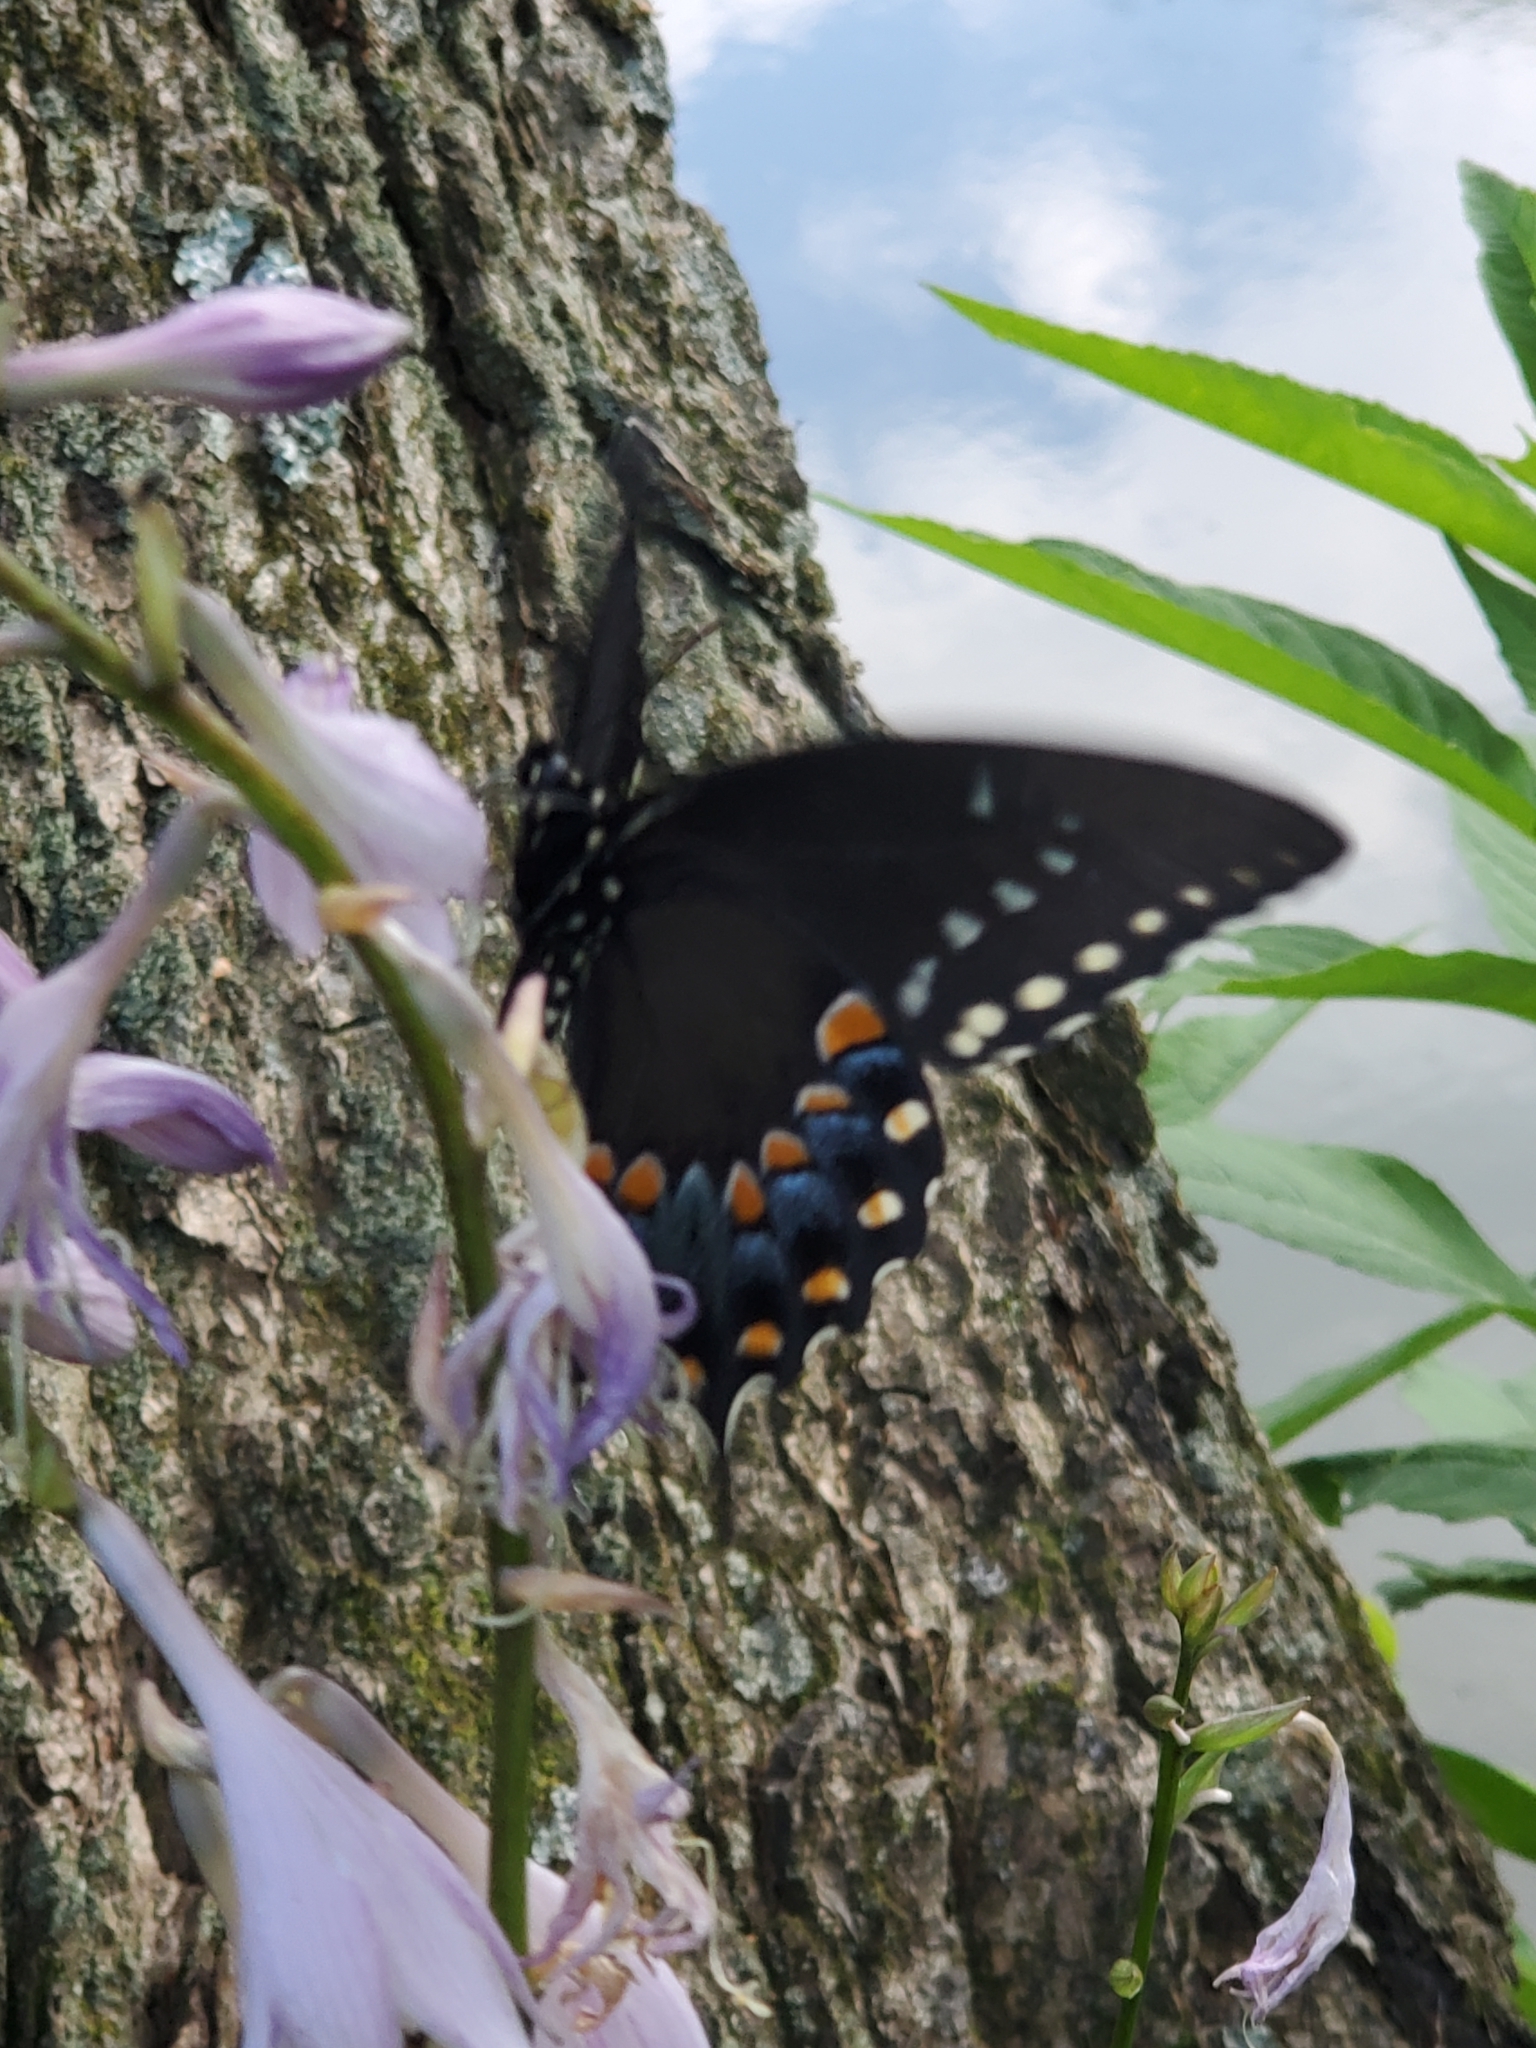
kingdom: Animalia
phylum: Arthropoda
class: Insecta
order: Lepidoptera
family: Papilionidae
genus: Papilio
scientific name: Papilio troilus
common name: Spicebush swallowtail
